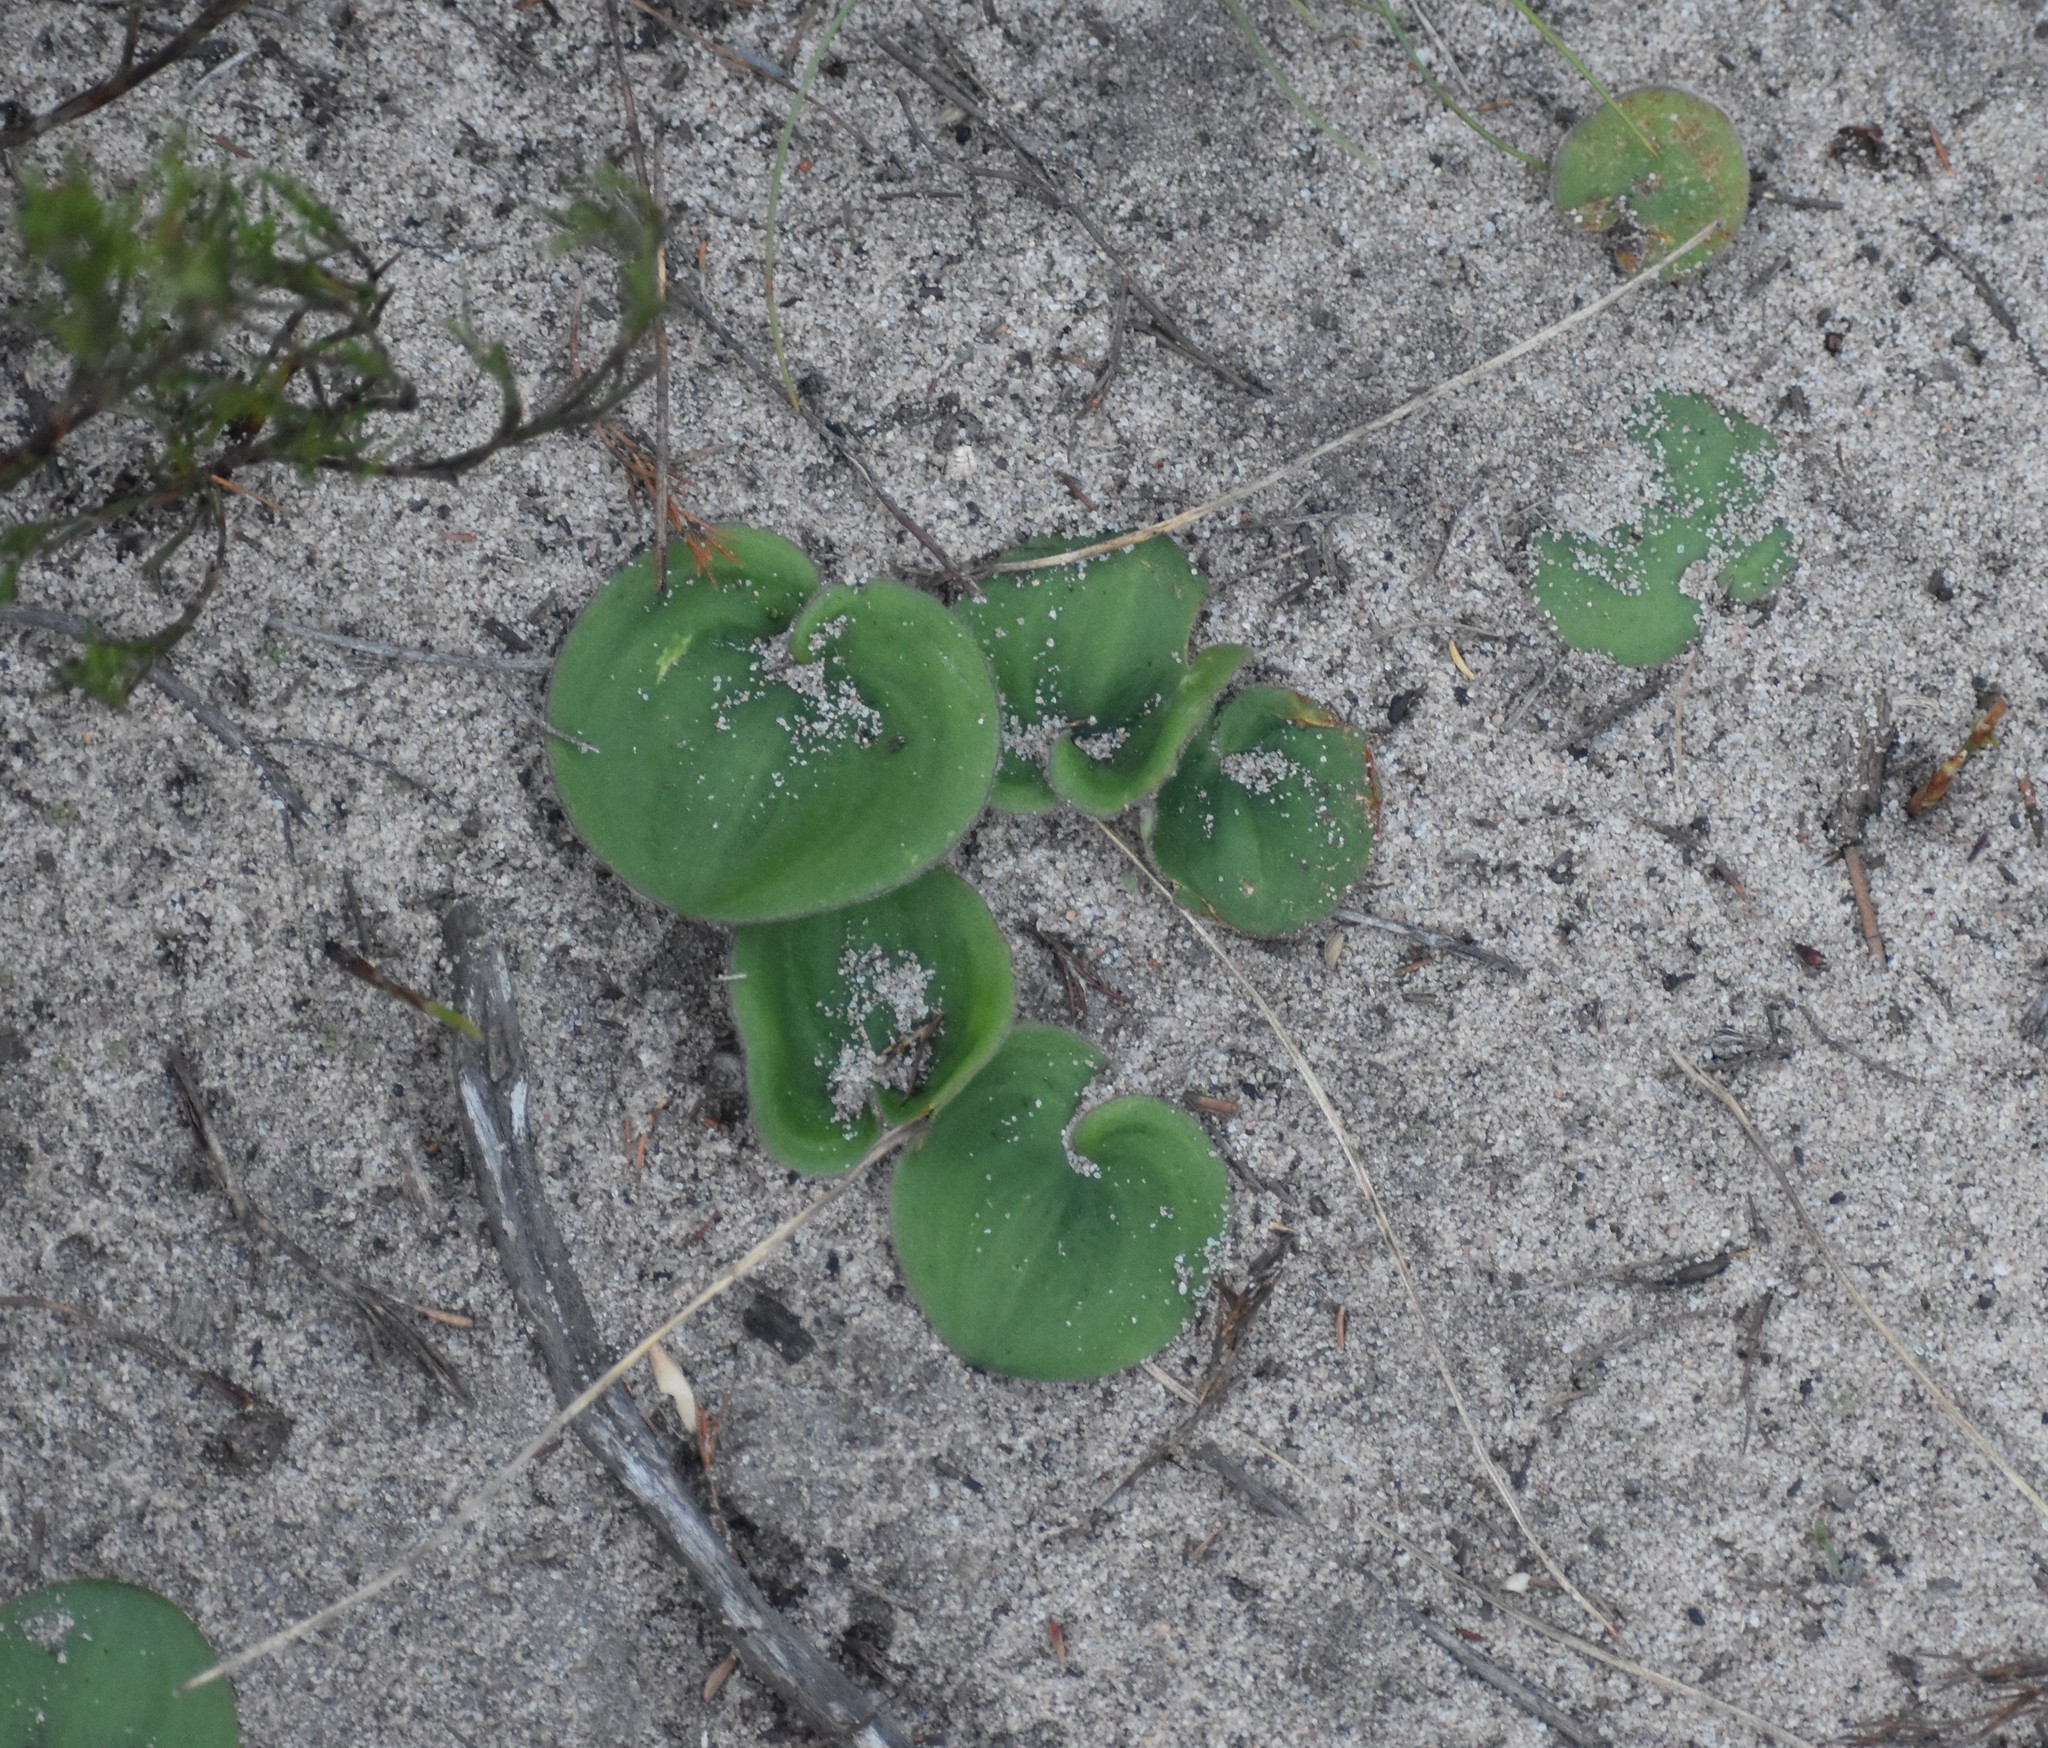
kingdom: Plantae
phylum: Tracheophyta
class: Liliopsida
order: Asparagales
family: Asparagaceae
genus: Eriospermum
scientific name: Eriospermum capense
